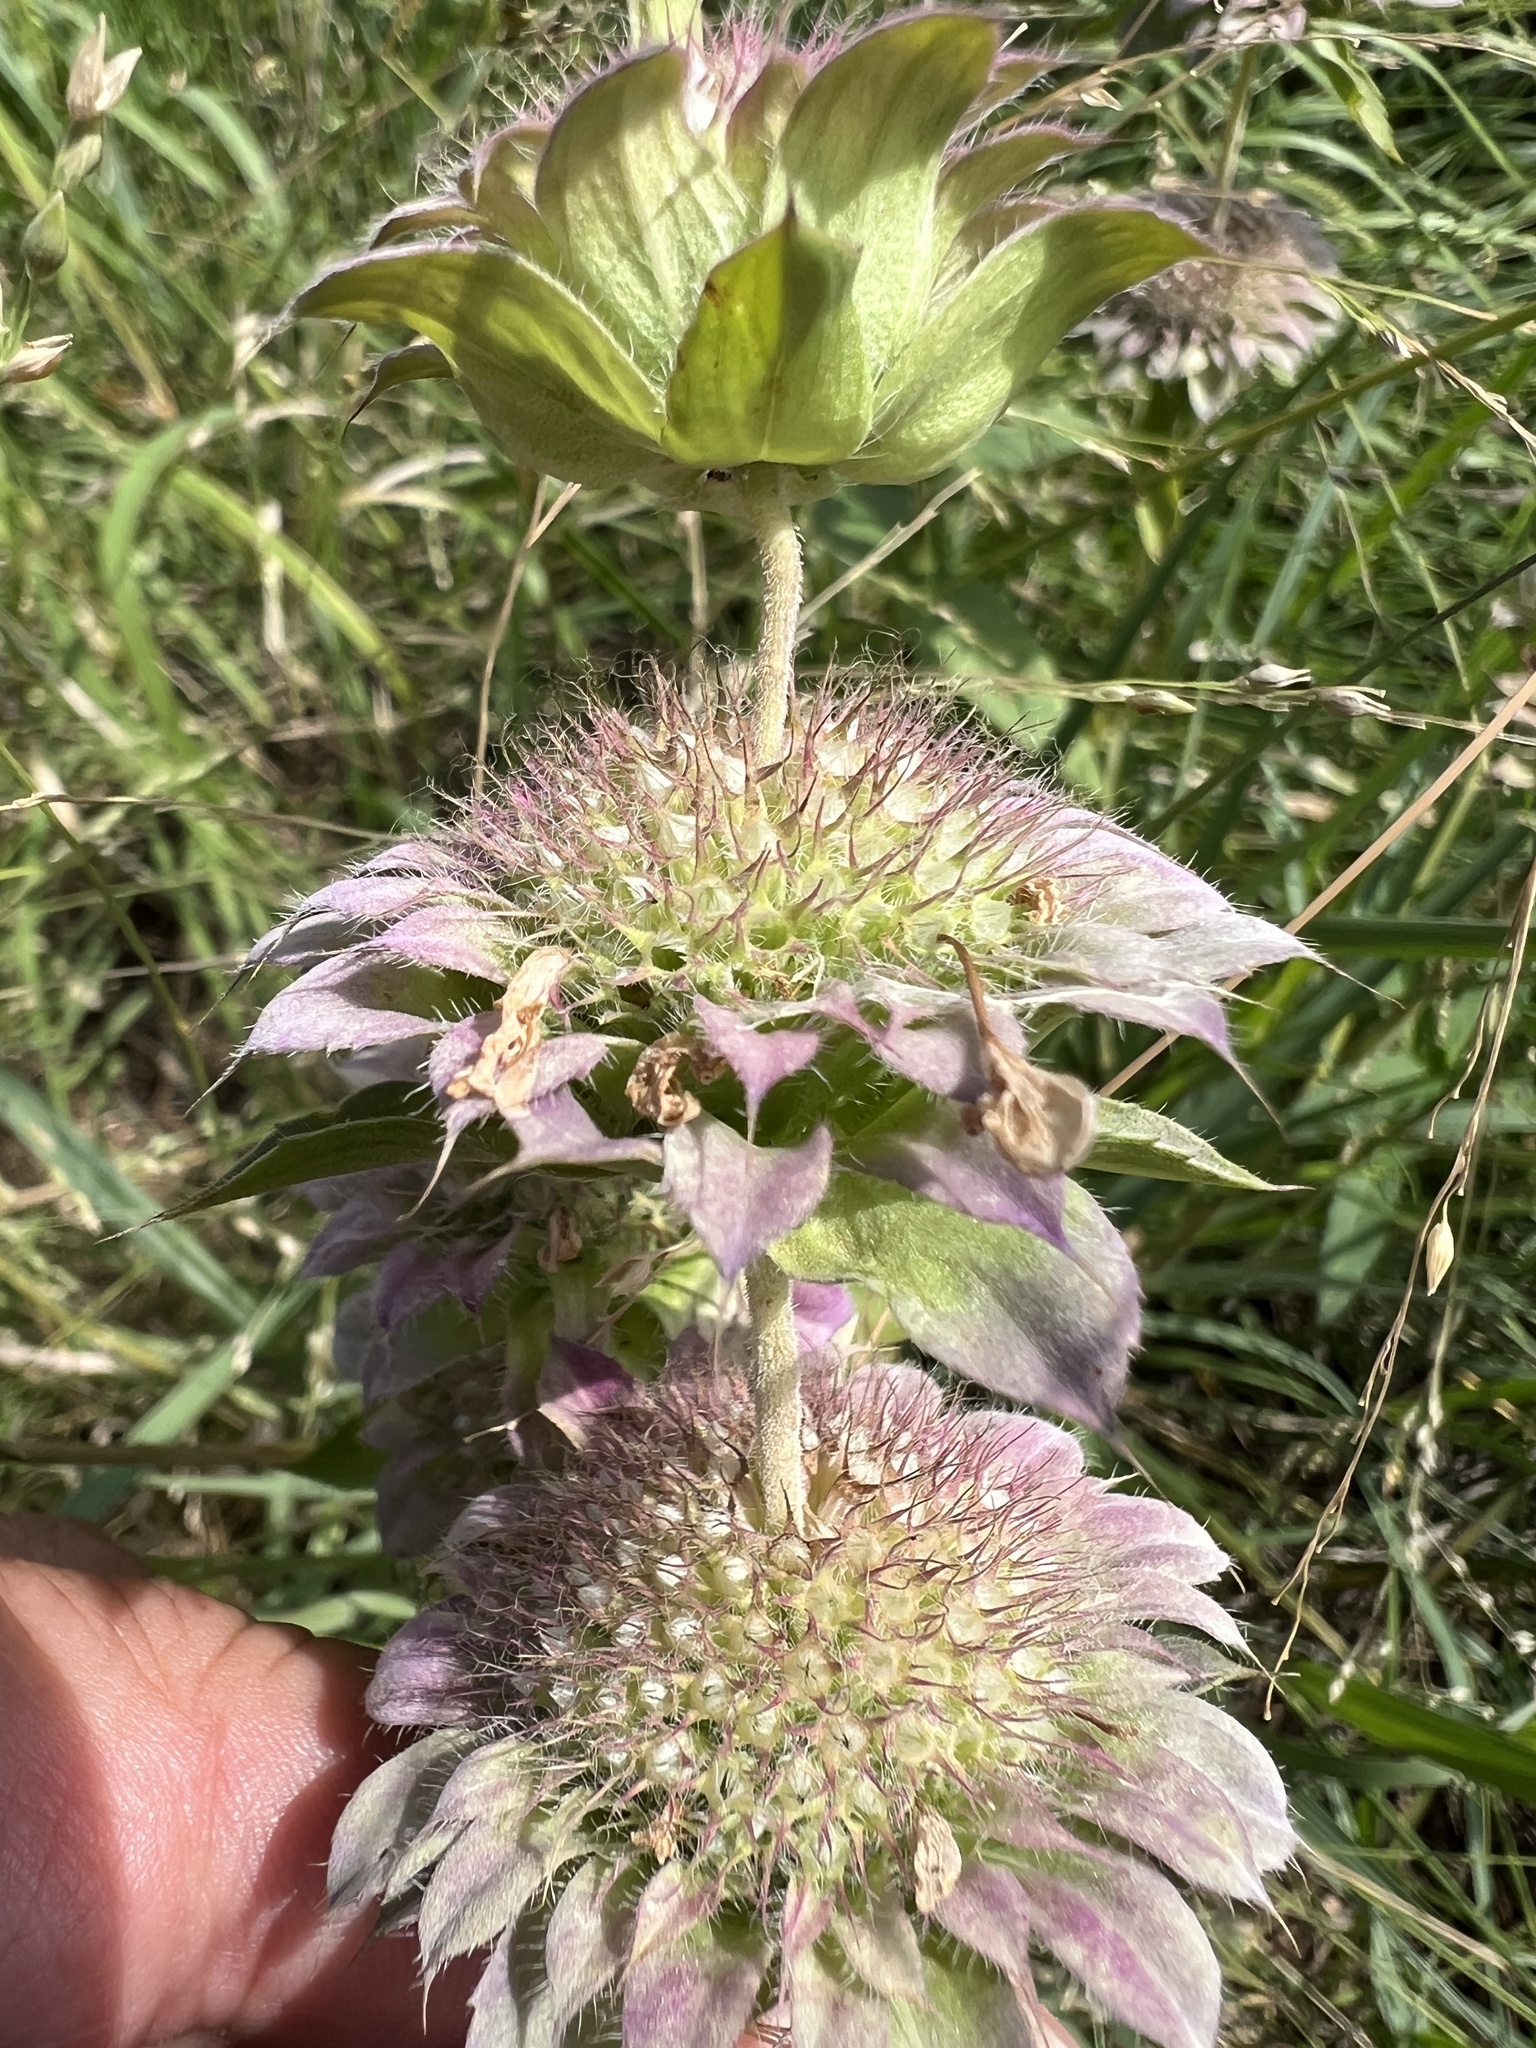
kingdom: Plantae
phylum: Tracheophyta
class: Magnoliopsida
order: Lamiales
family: Lamiaceae
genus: Monarda
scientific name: Monarda citriodora
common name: Lemon beebalm
